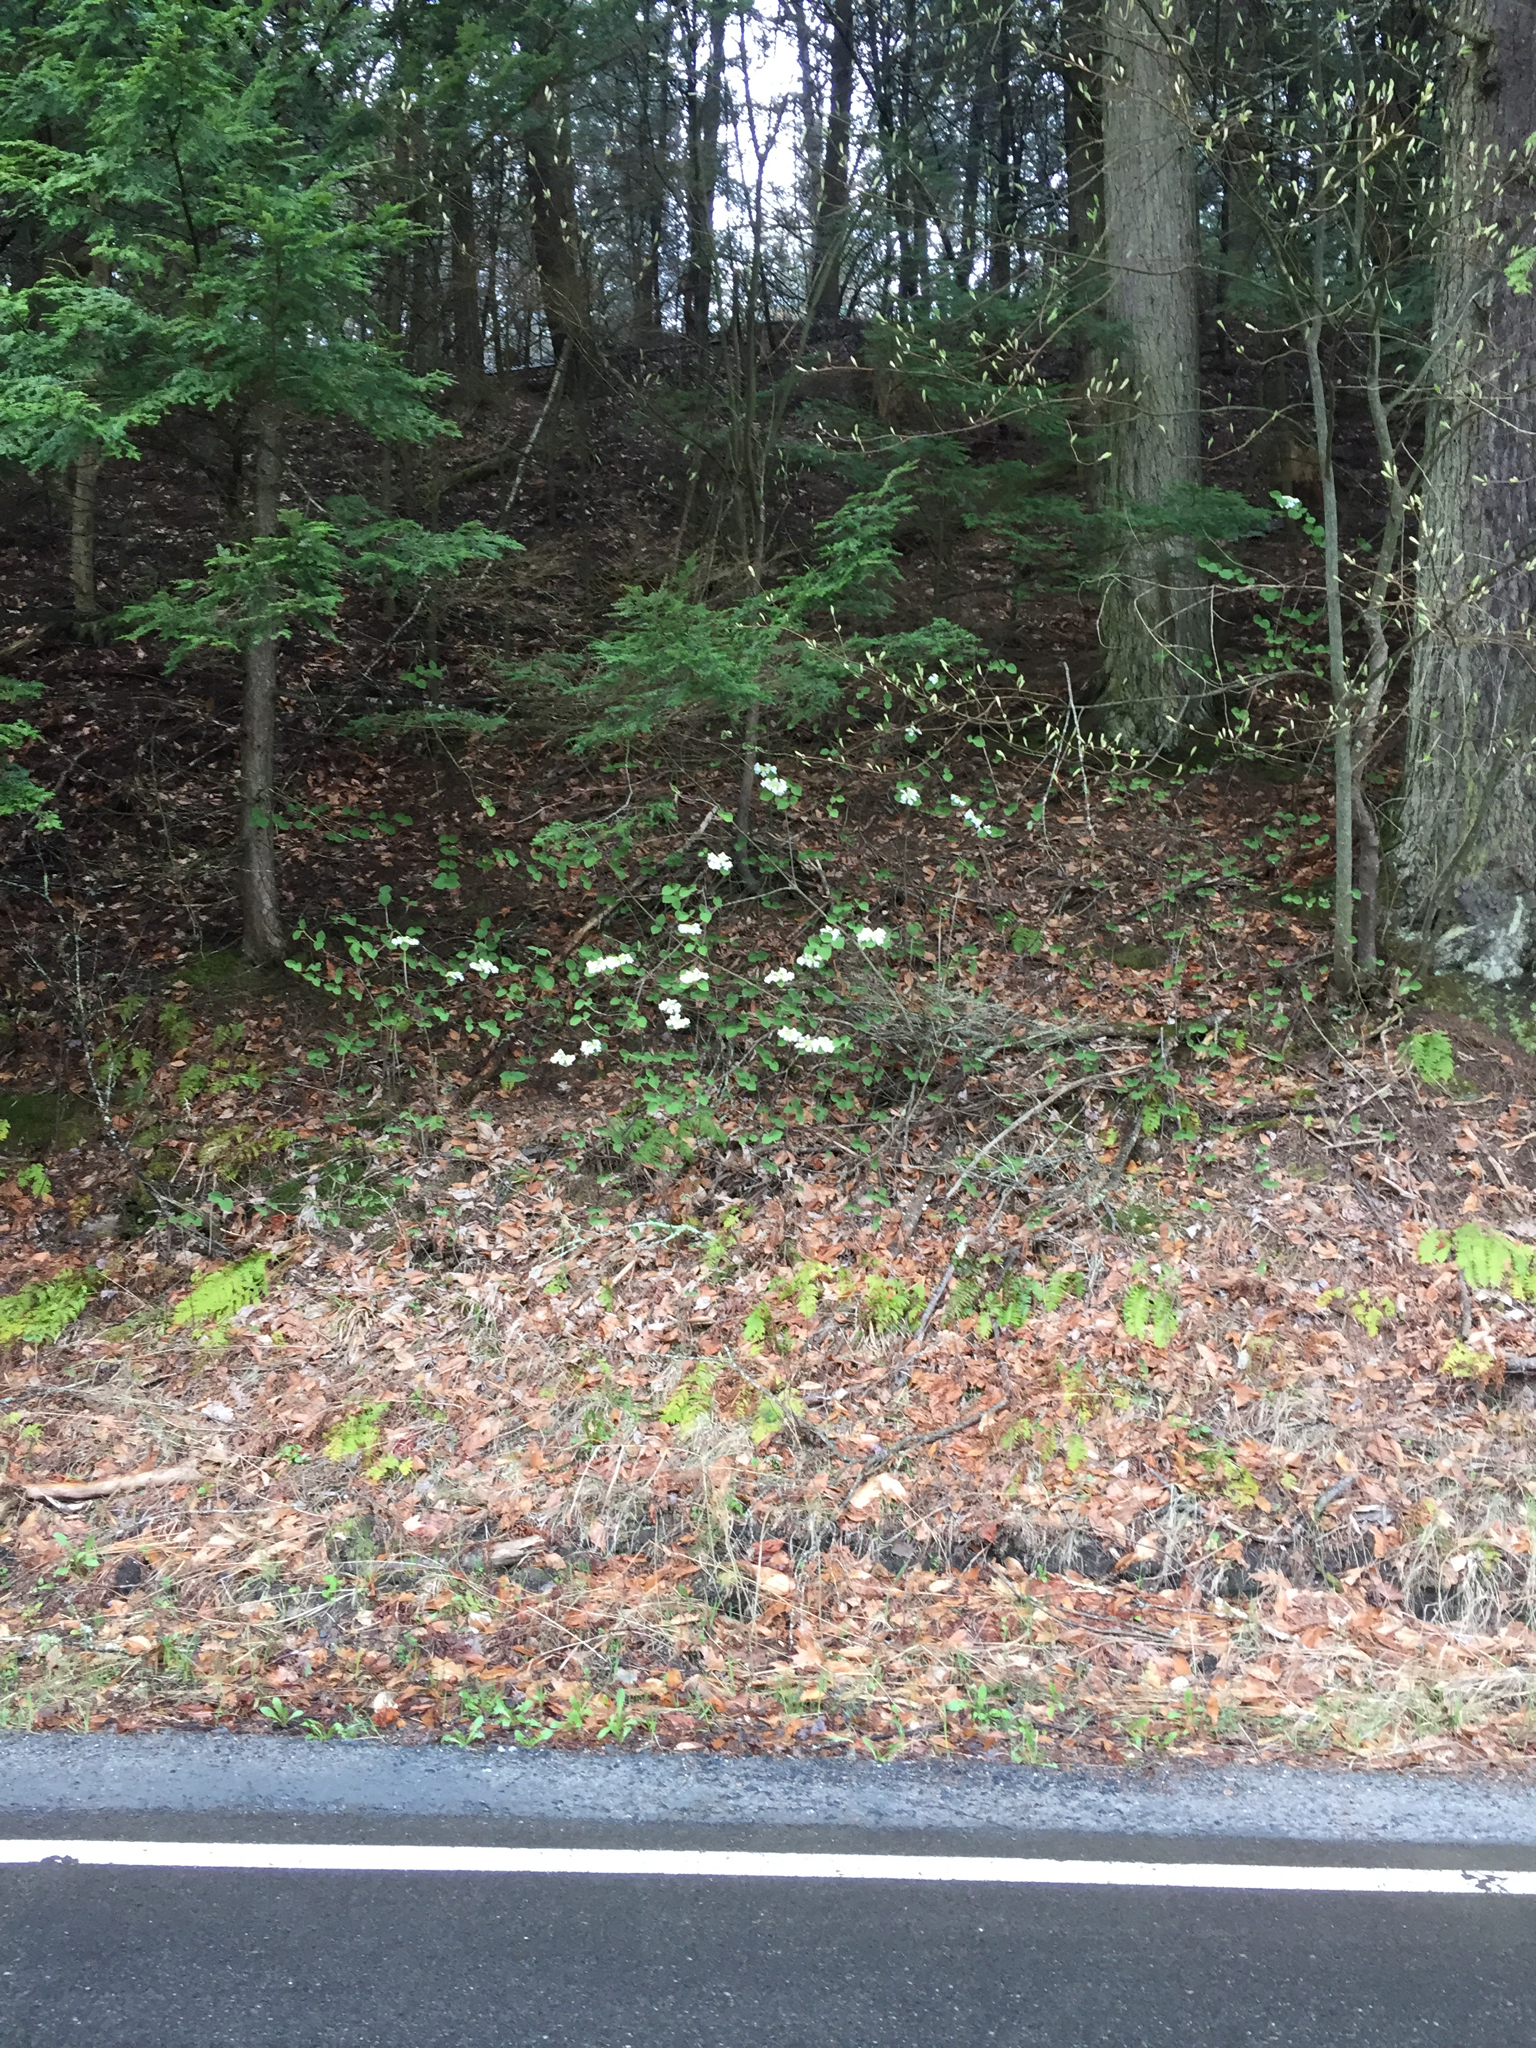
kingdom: Plantae
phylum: Tracheophyta
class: Magnoliopsida
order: Dipsacales
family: Viburnaceae
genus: Viburnum
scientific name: Viburnum lantanoides
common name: Hobblebush
